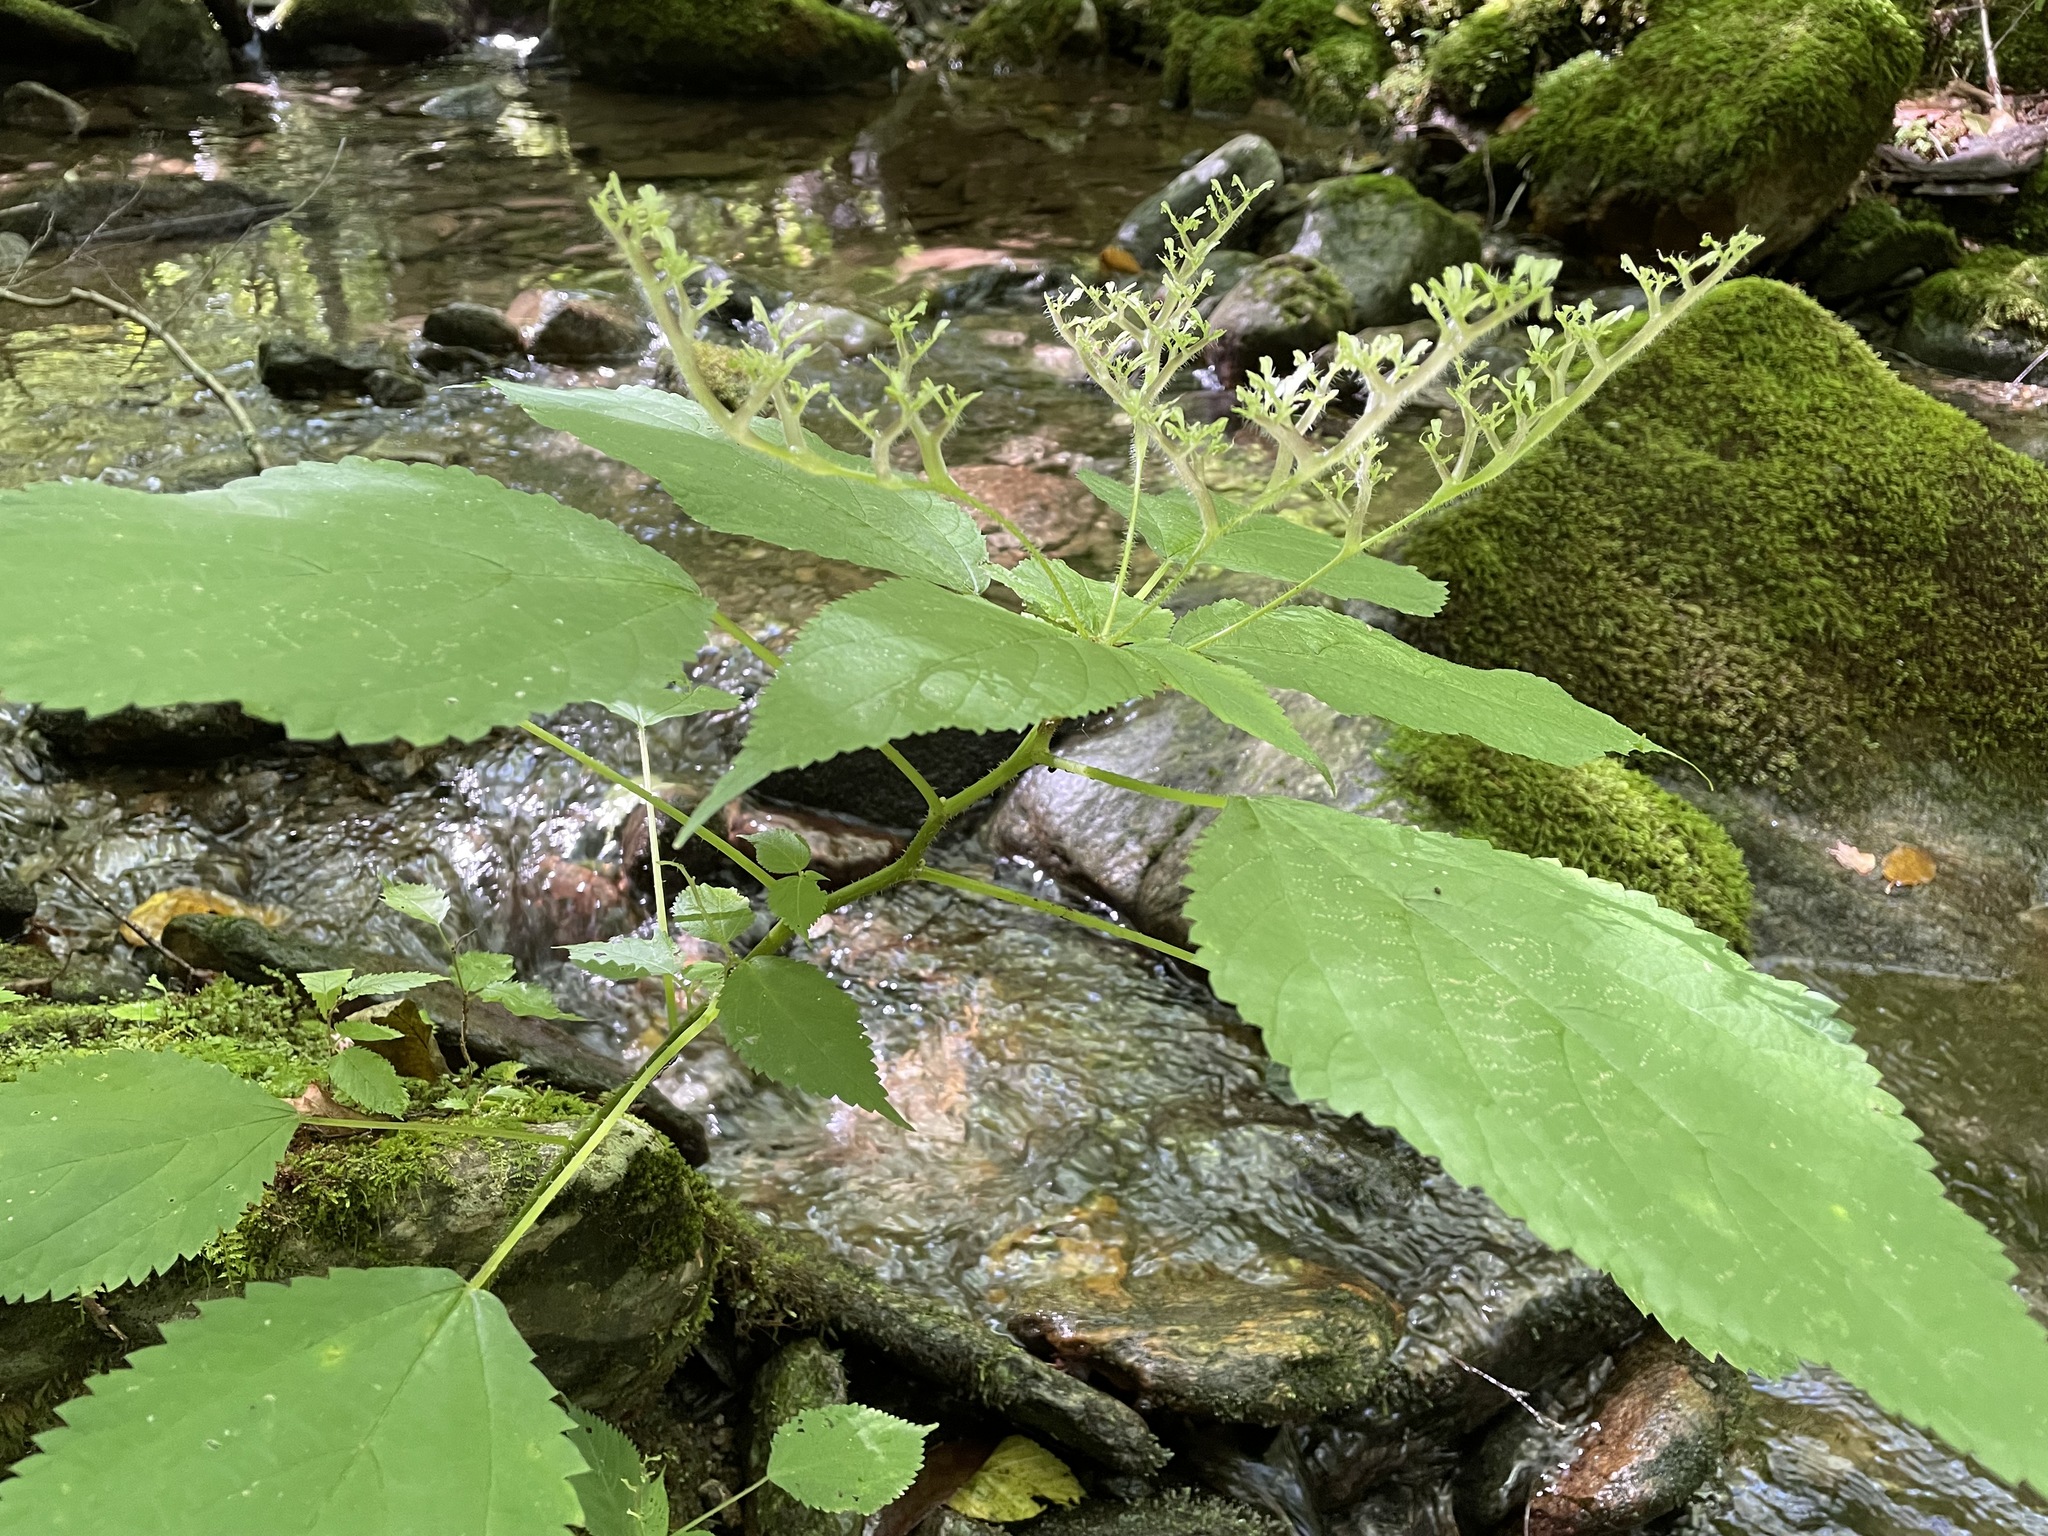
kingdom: Plantae
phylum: Tracheophyta
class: Magnoliopsida
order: Rosales
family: Urticaceae
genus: Laportea
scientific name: Laportea canadensis
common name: Canada nettle
